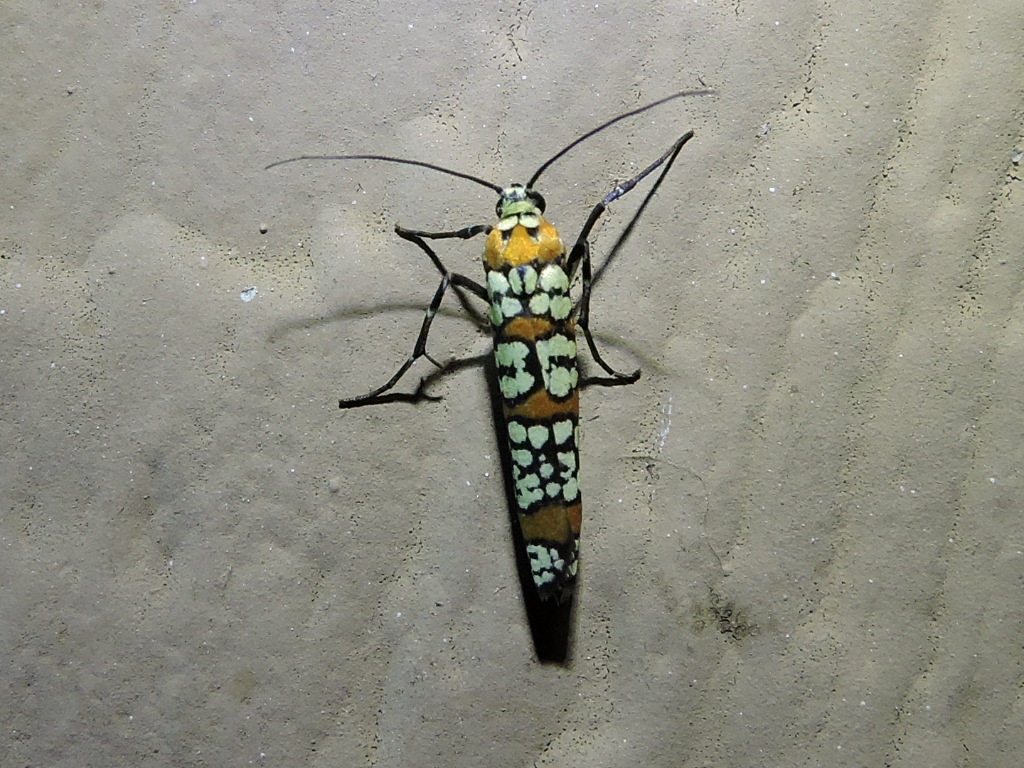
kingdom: Animalia
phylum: Arthropoda
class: Insecta
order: Lepidoptera
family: Attevidae
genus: Atteva
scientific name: Atteva punctella
